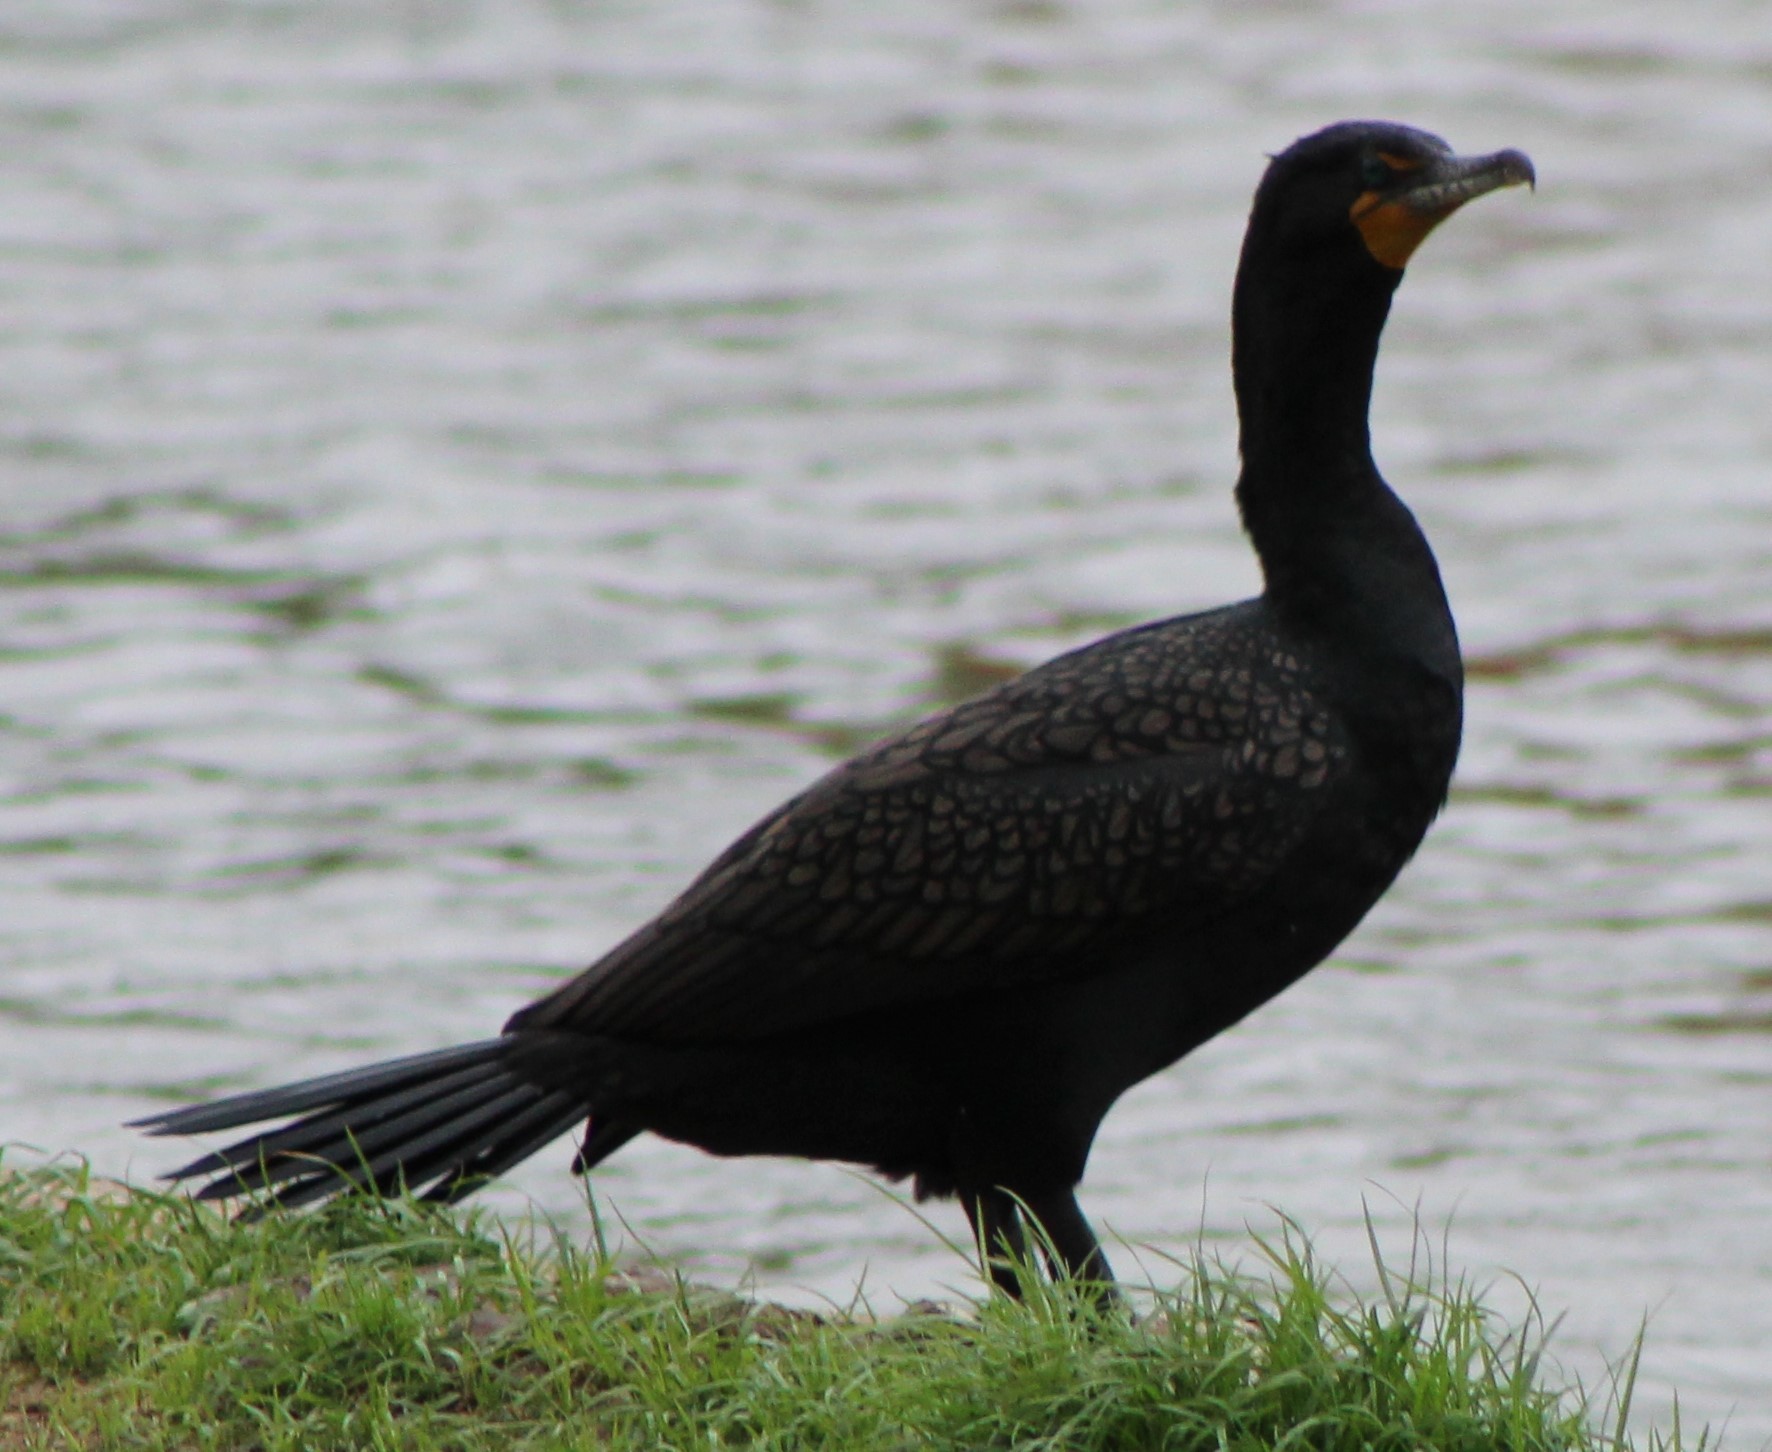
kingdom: Animalia
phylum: Chordata
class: Aves
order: Suliformes
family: Phalacrocoracidae
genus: Phalacrocorax
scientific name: Phalacrocorax auritus
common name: Double-crested cormorant
